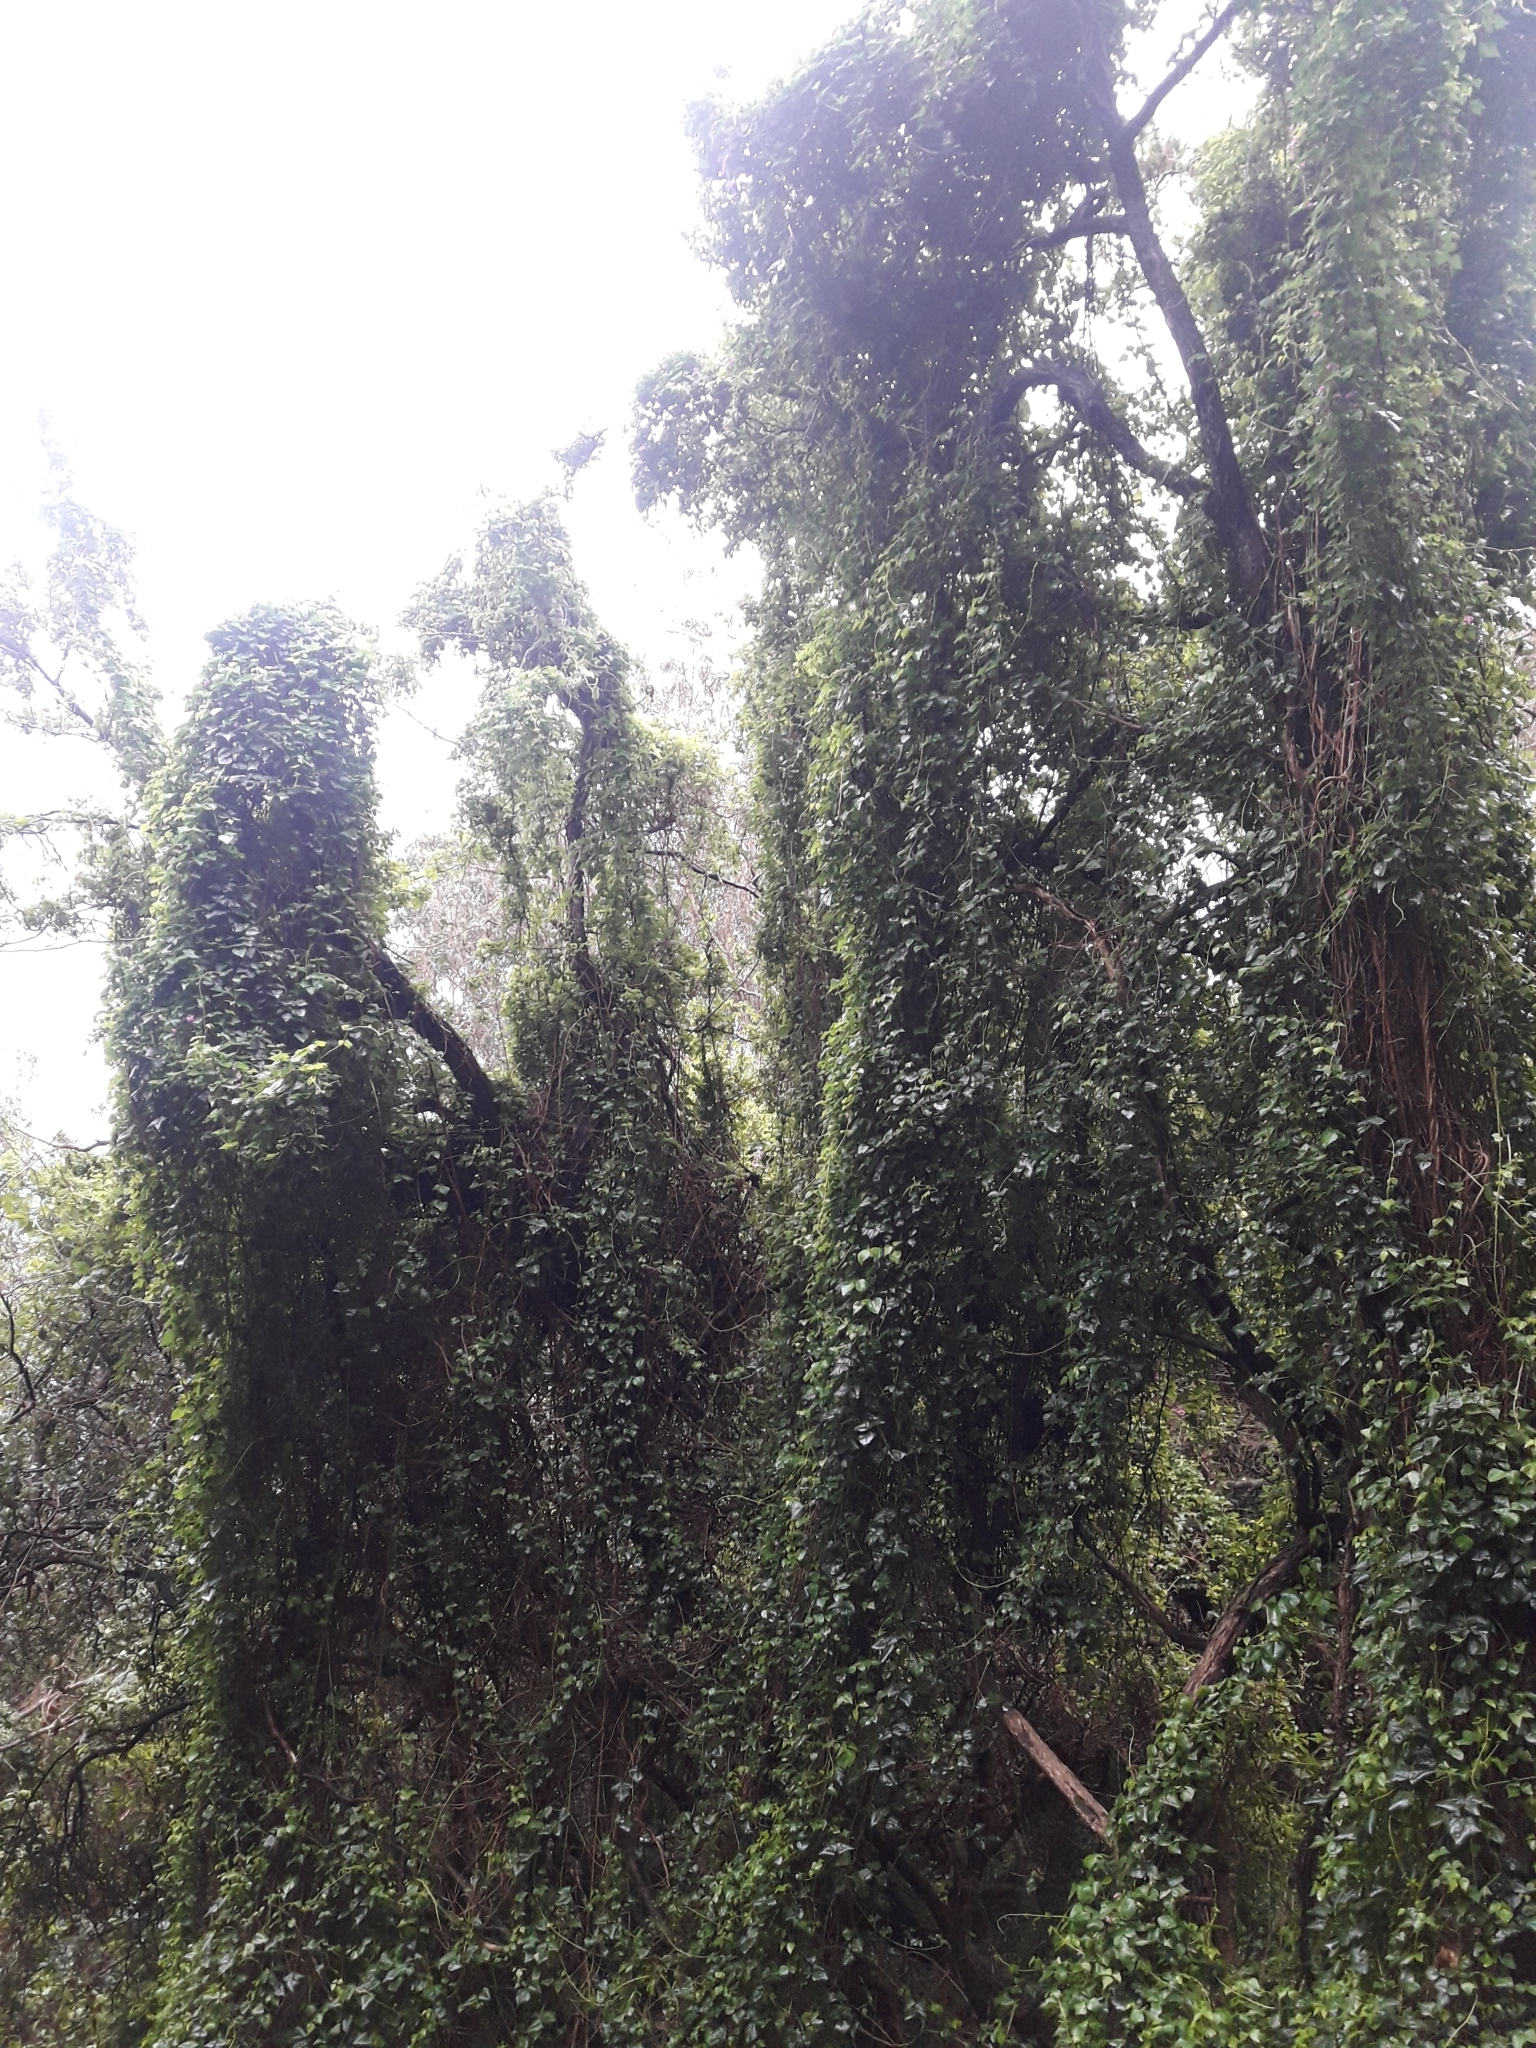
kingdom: Plantae
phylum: Tracheophyta
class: Magnoliopsida
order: Fabales
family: Fabaceae
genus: Dipogon
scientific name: Dipogon lignosus
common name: Okie bean
